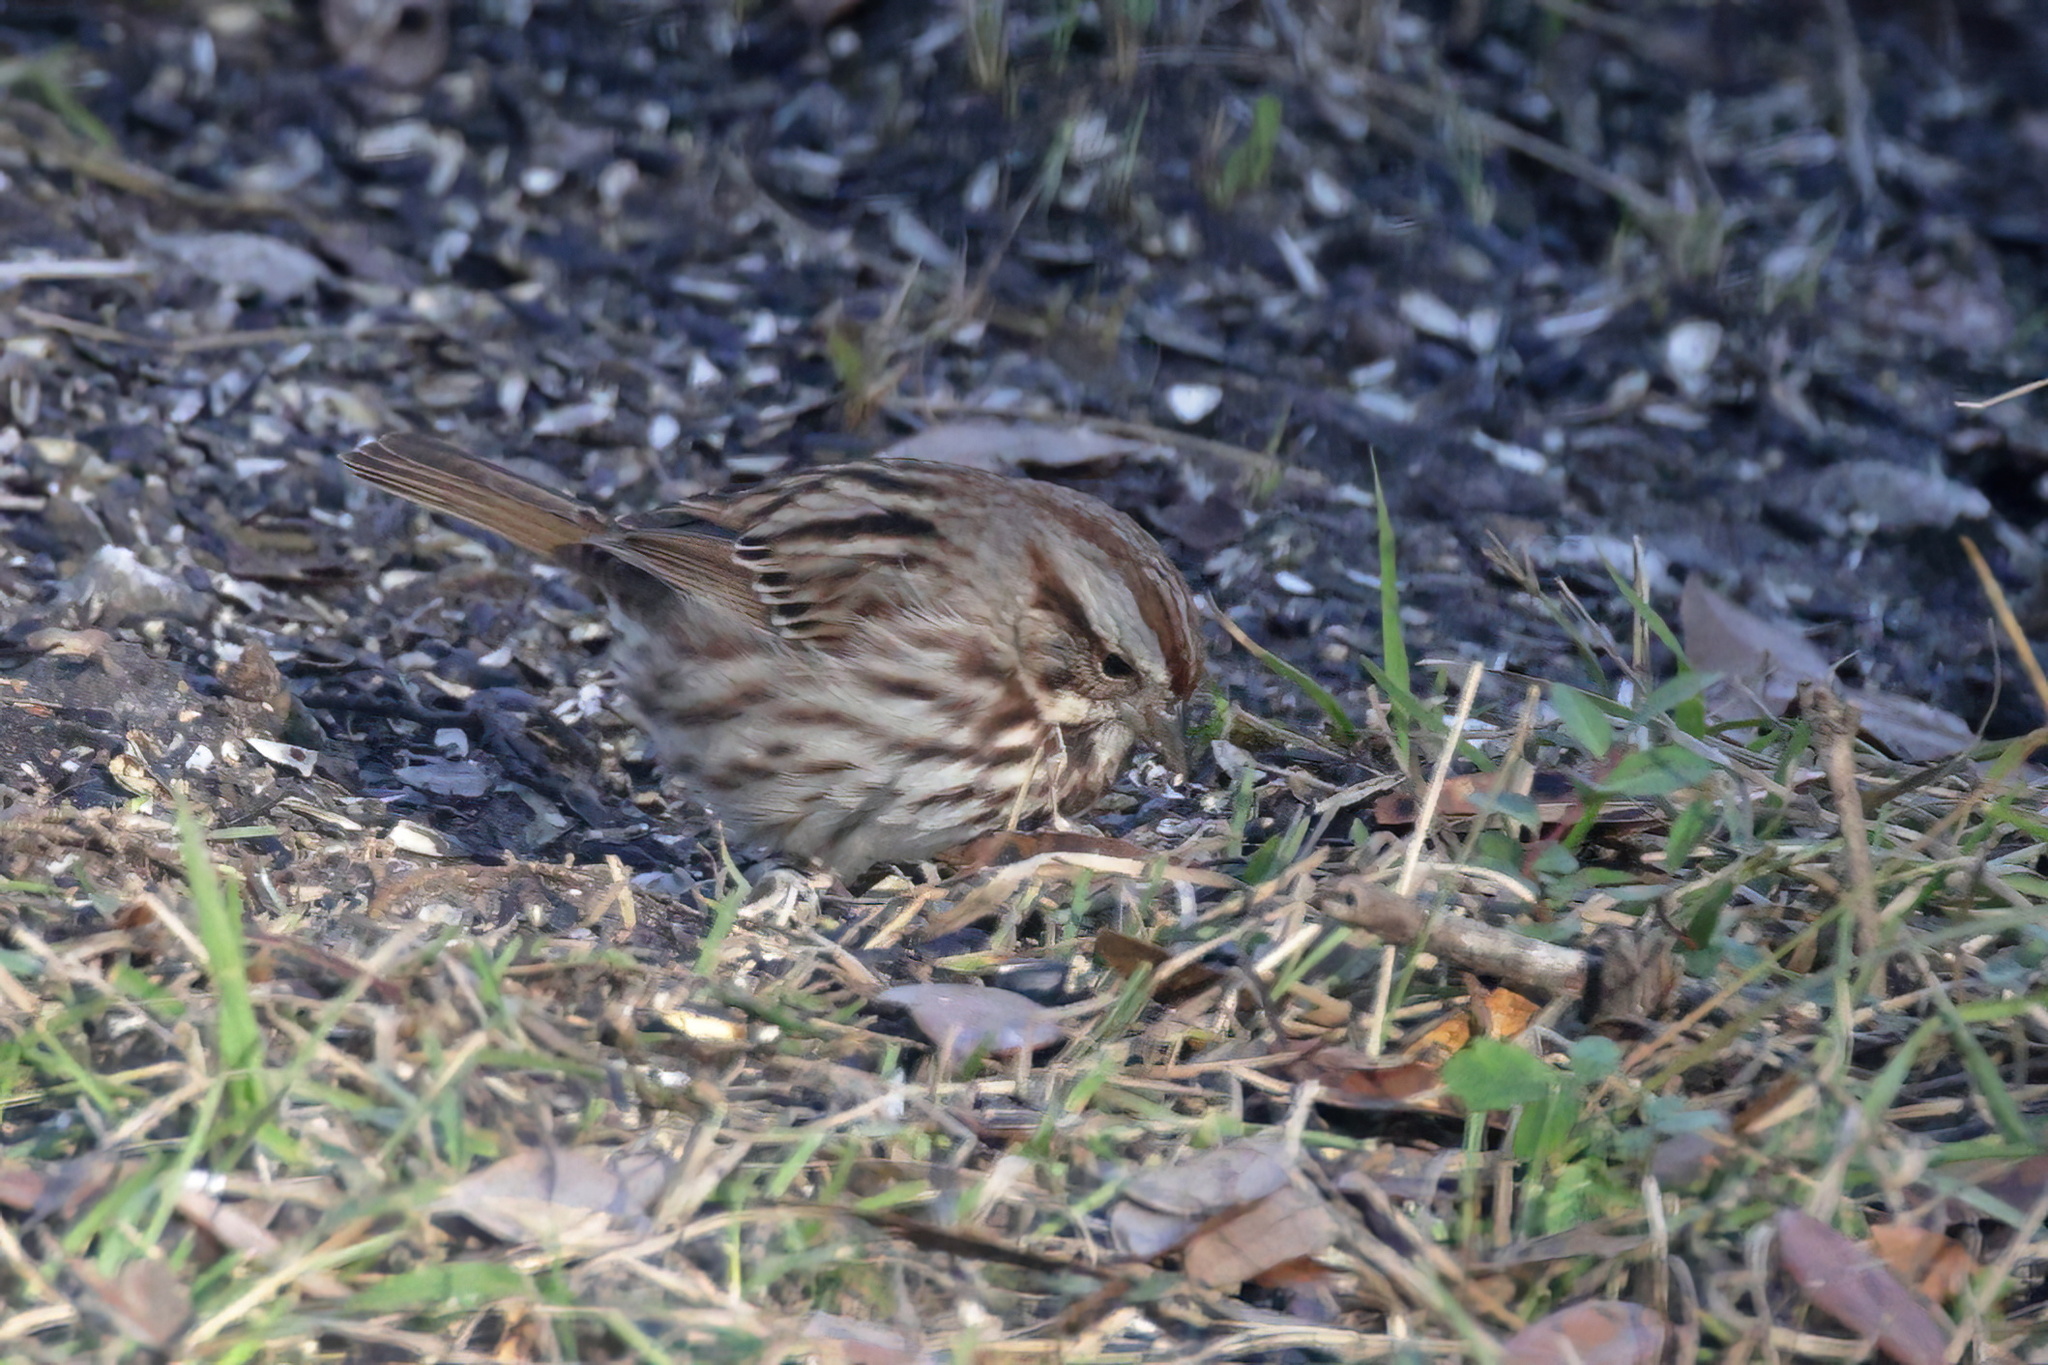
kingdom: Animalia
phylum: Chordata
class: Aves
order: Passeriformes
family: Passerellidae
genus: Melospiza
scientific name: Melospiza melodia
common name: Song sparrow
